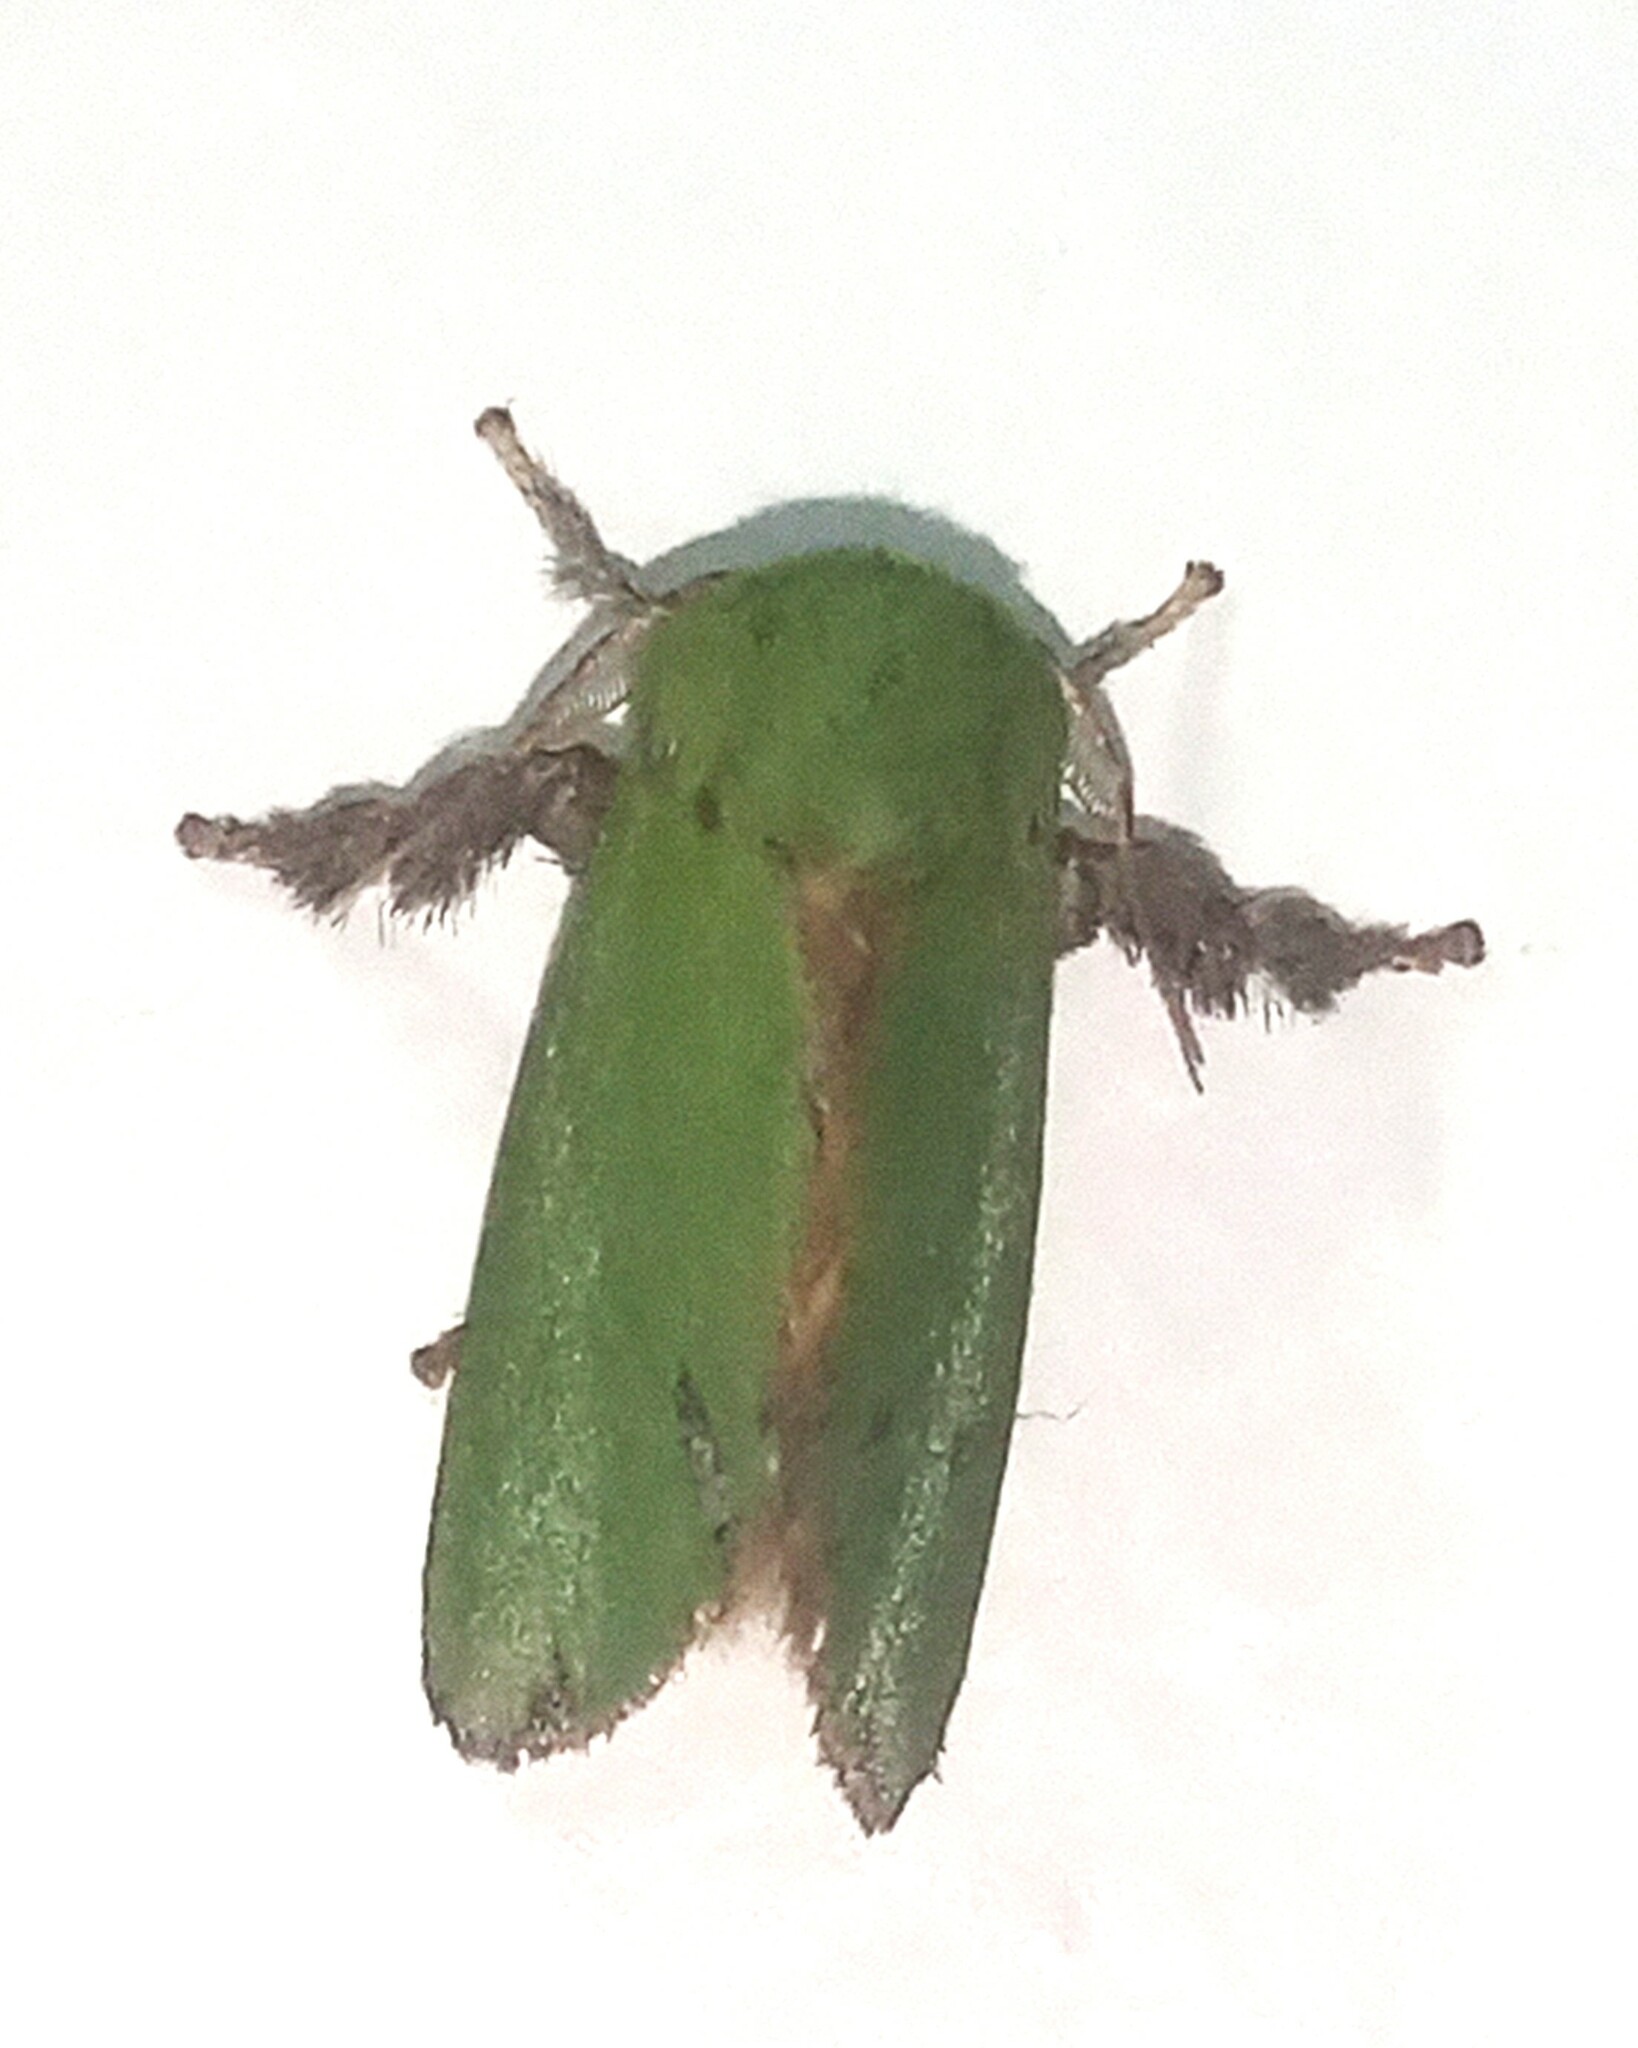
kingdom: Animalia
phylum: Arthropoda
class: Insecta
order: Lepidoptera
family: Limacodidae
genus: Parasa
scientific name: Parasa herbina
